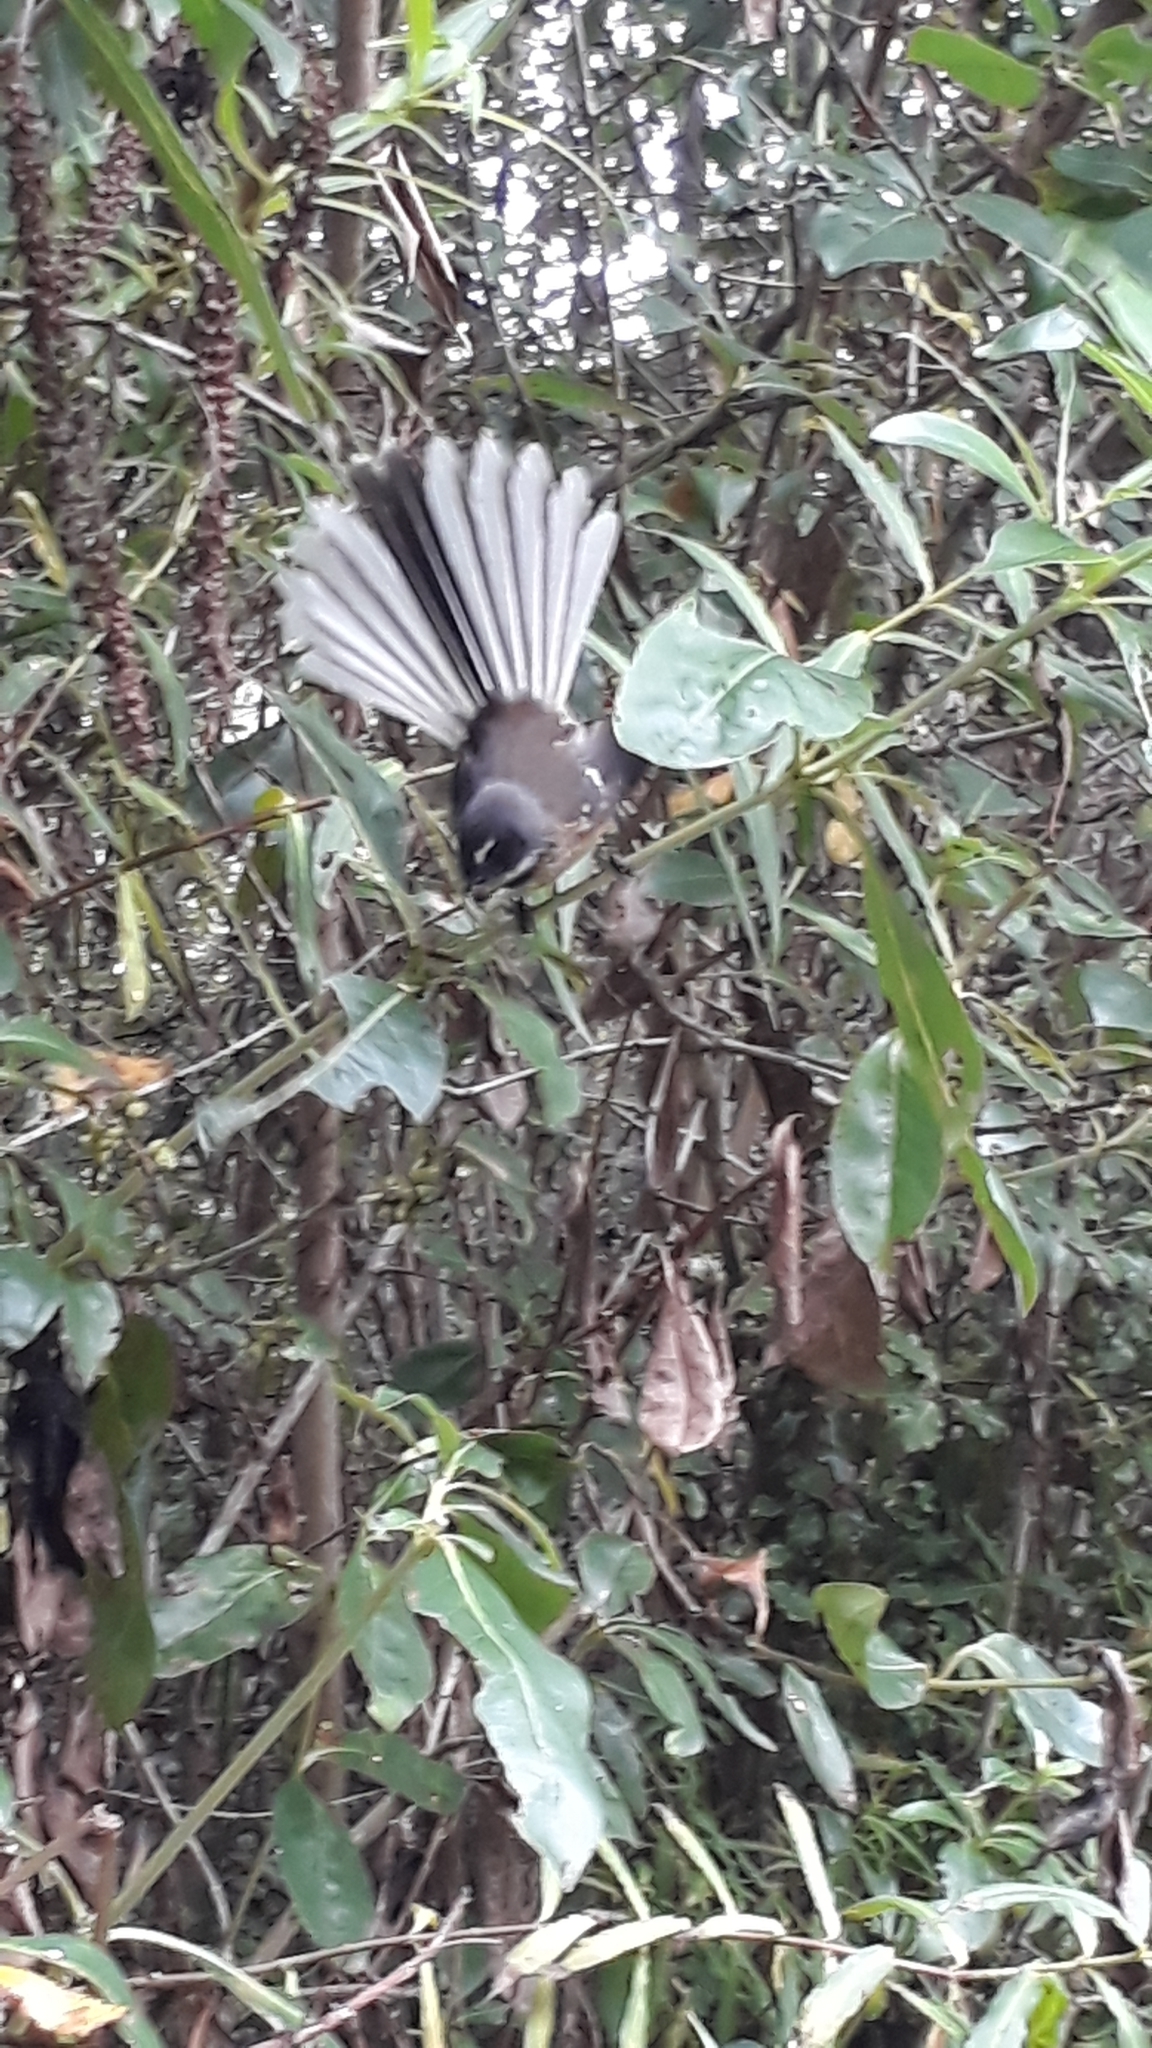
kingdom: Animalia
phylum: Chordata
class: Aves
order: Passeriformes
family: Rhipiduridae
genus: Rhipidura
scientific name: Rhipidura fuliginosa
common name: New zealand fantail
